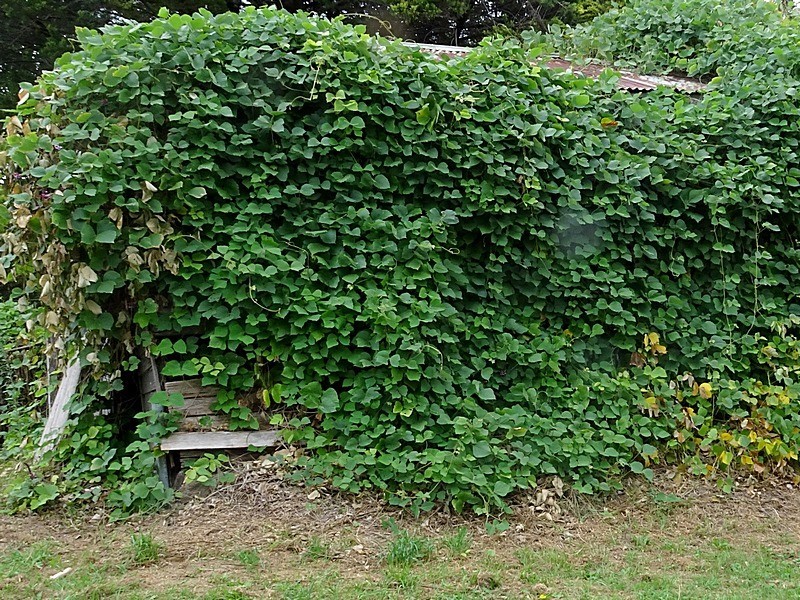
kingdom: Plantae
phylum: Tracheophyta
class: Magnoliopsida
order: Fabales
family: Fabaceae
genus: Pueraria
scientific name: Pueraria montana
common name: Kudzu
